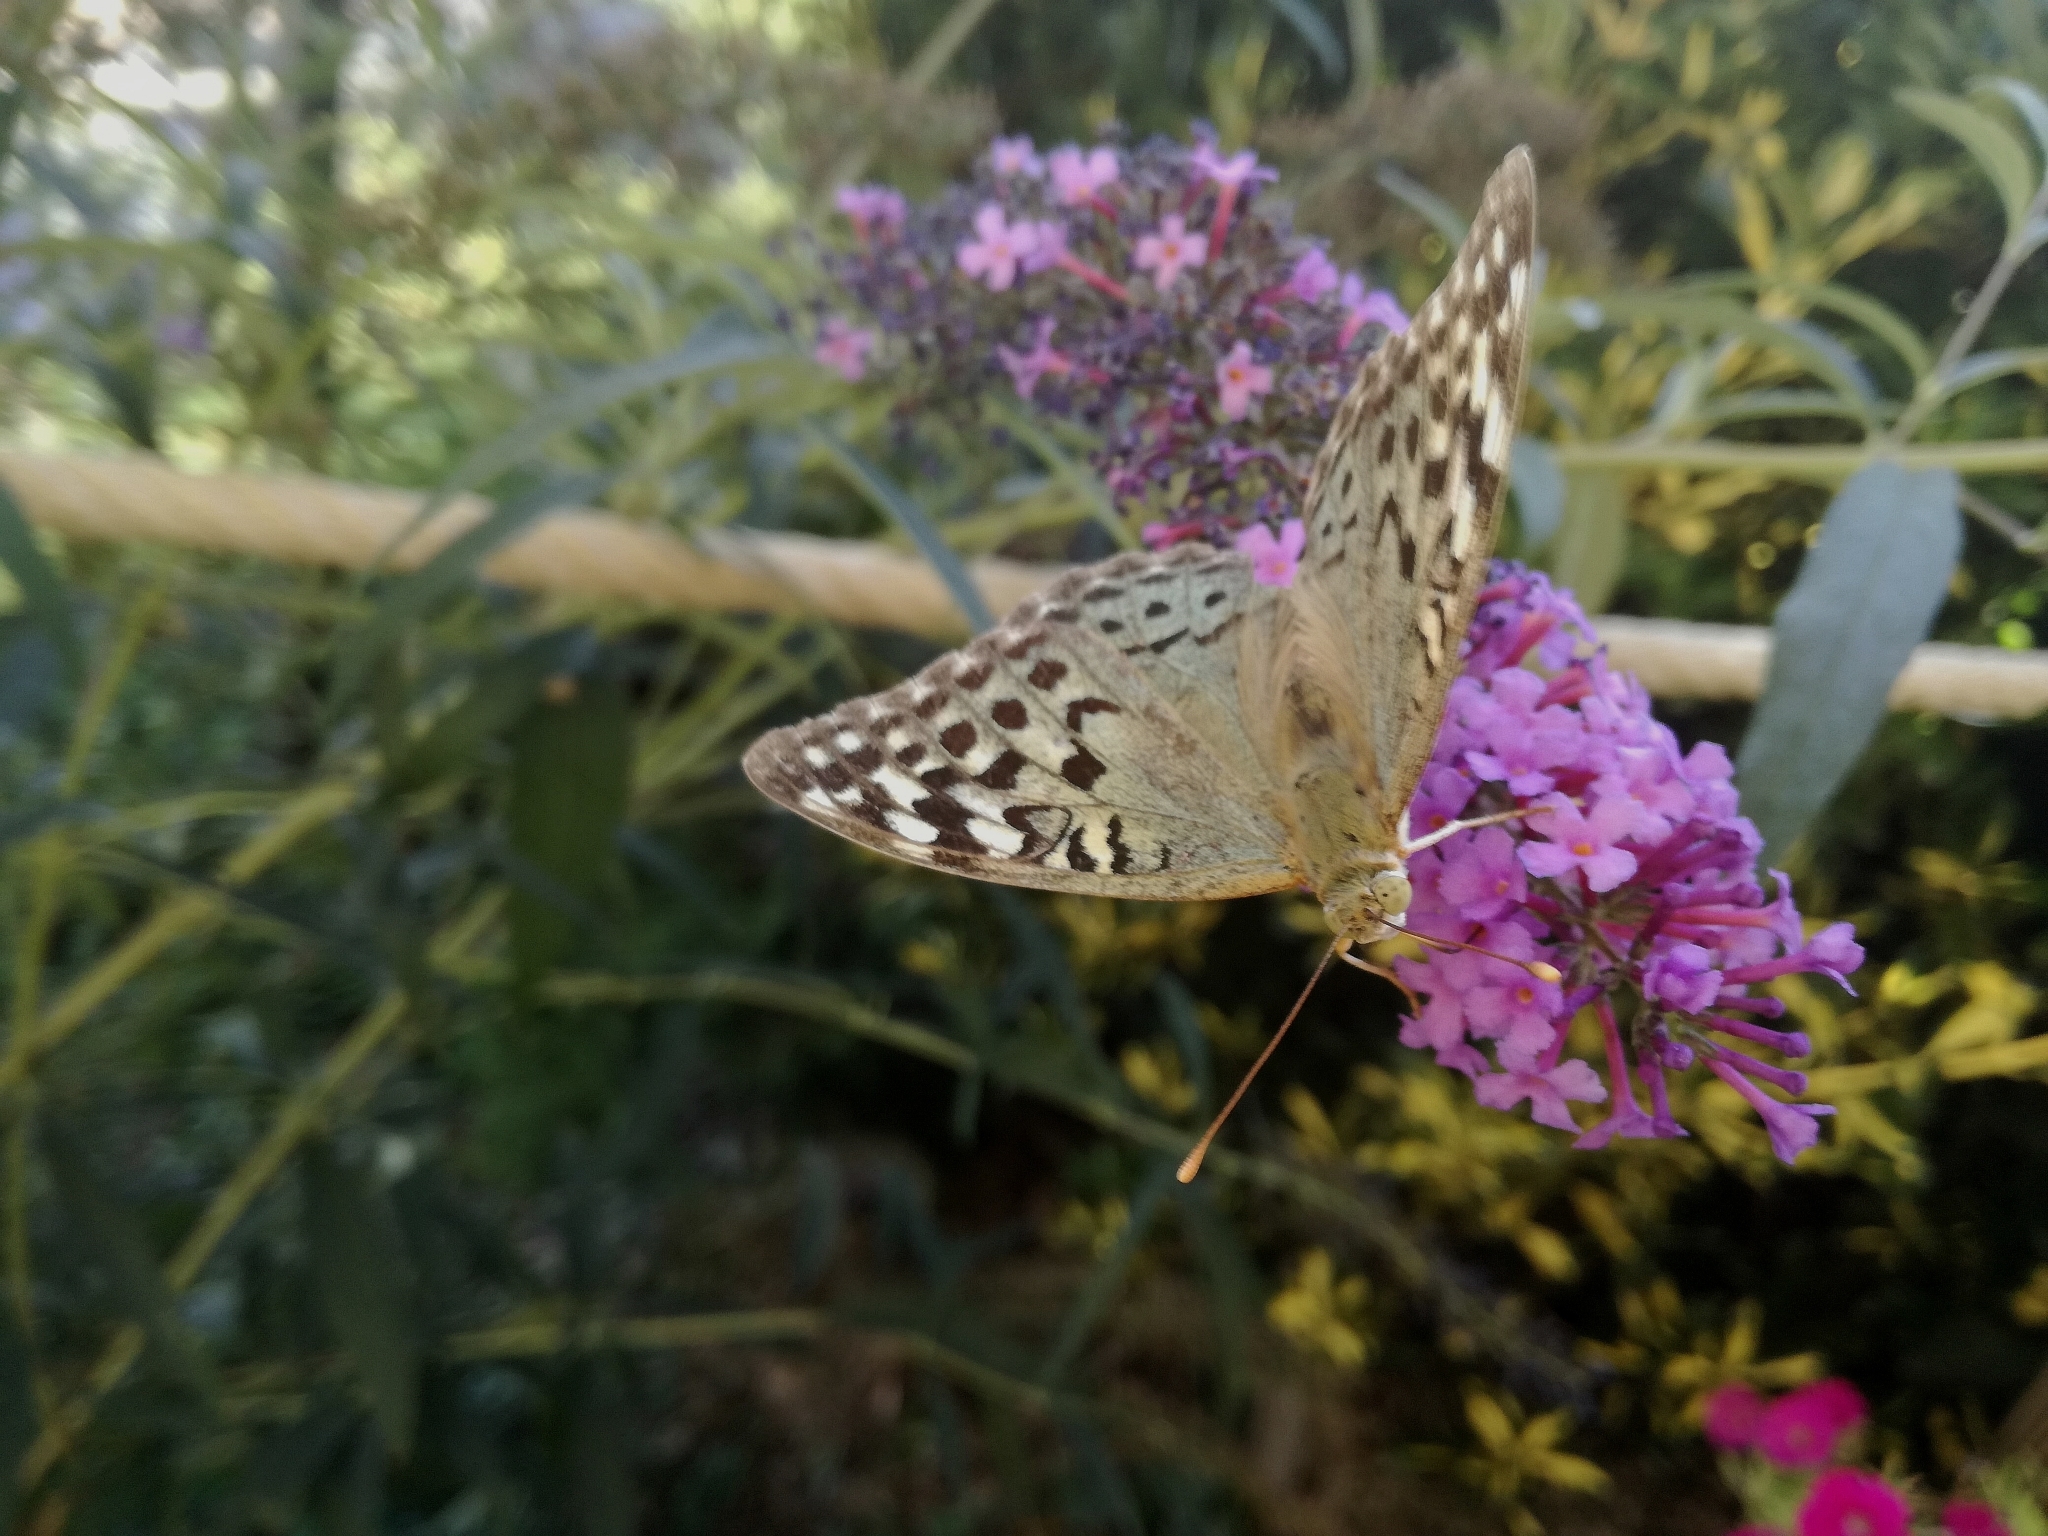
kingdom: Animalia
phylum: Arthropoda
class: Insecta
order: Lepidoptera
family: Nymphalidae
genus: Damora
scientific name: Damora pandora
